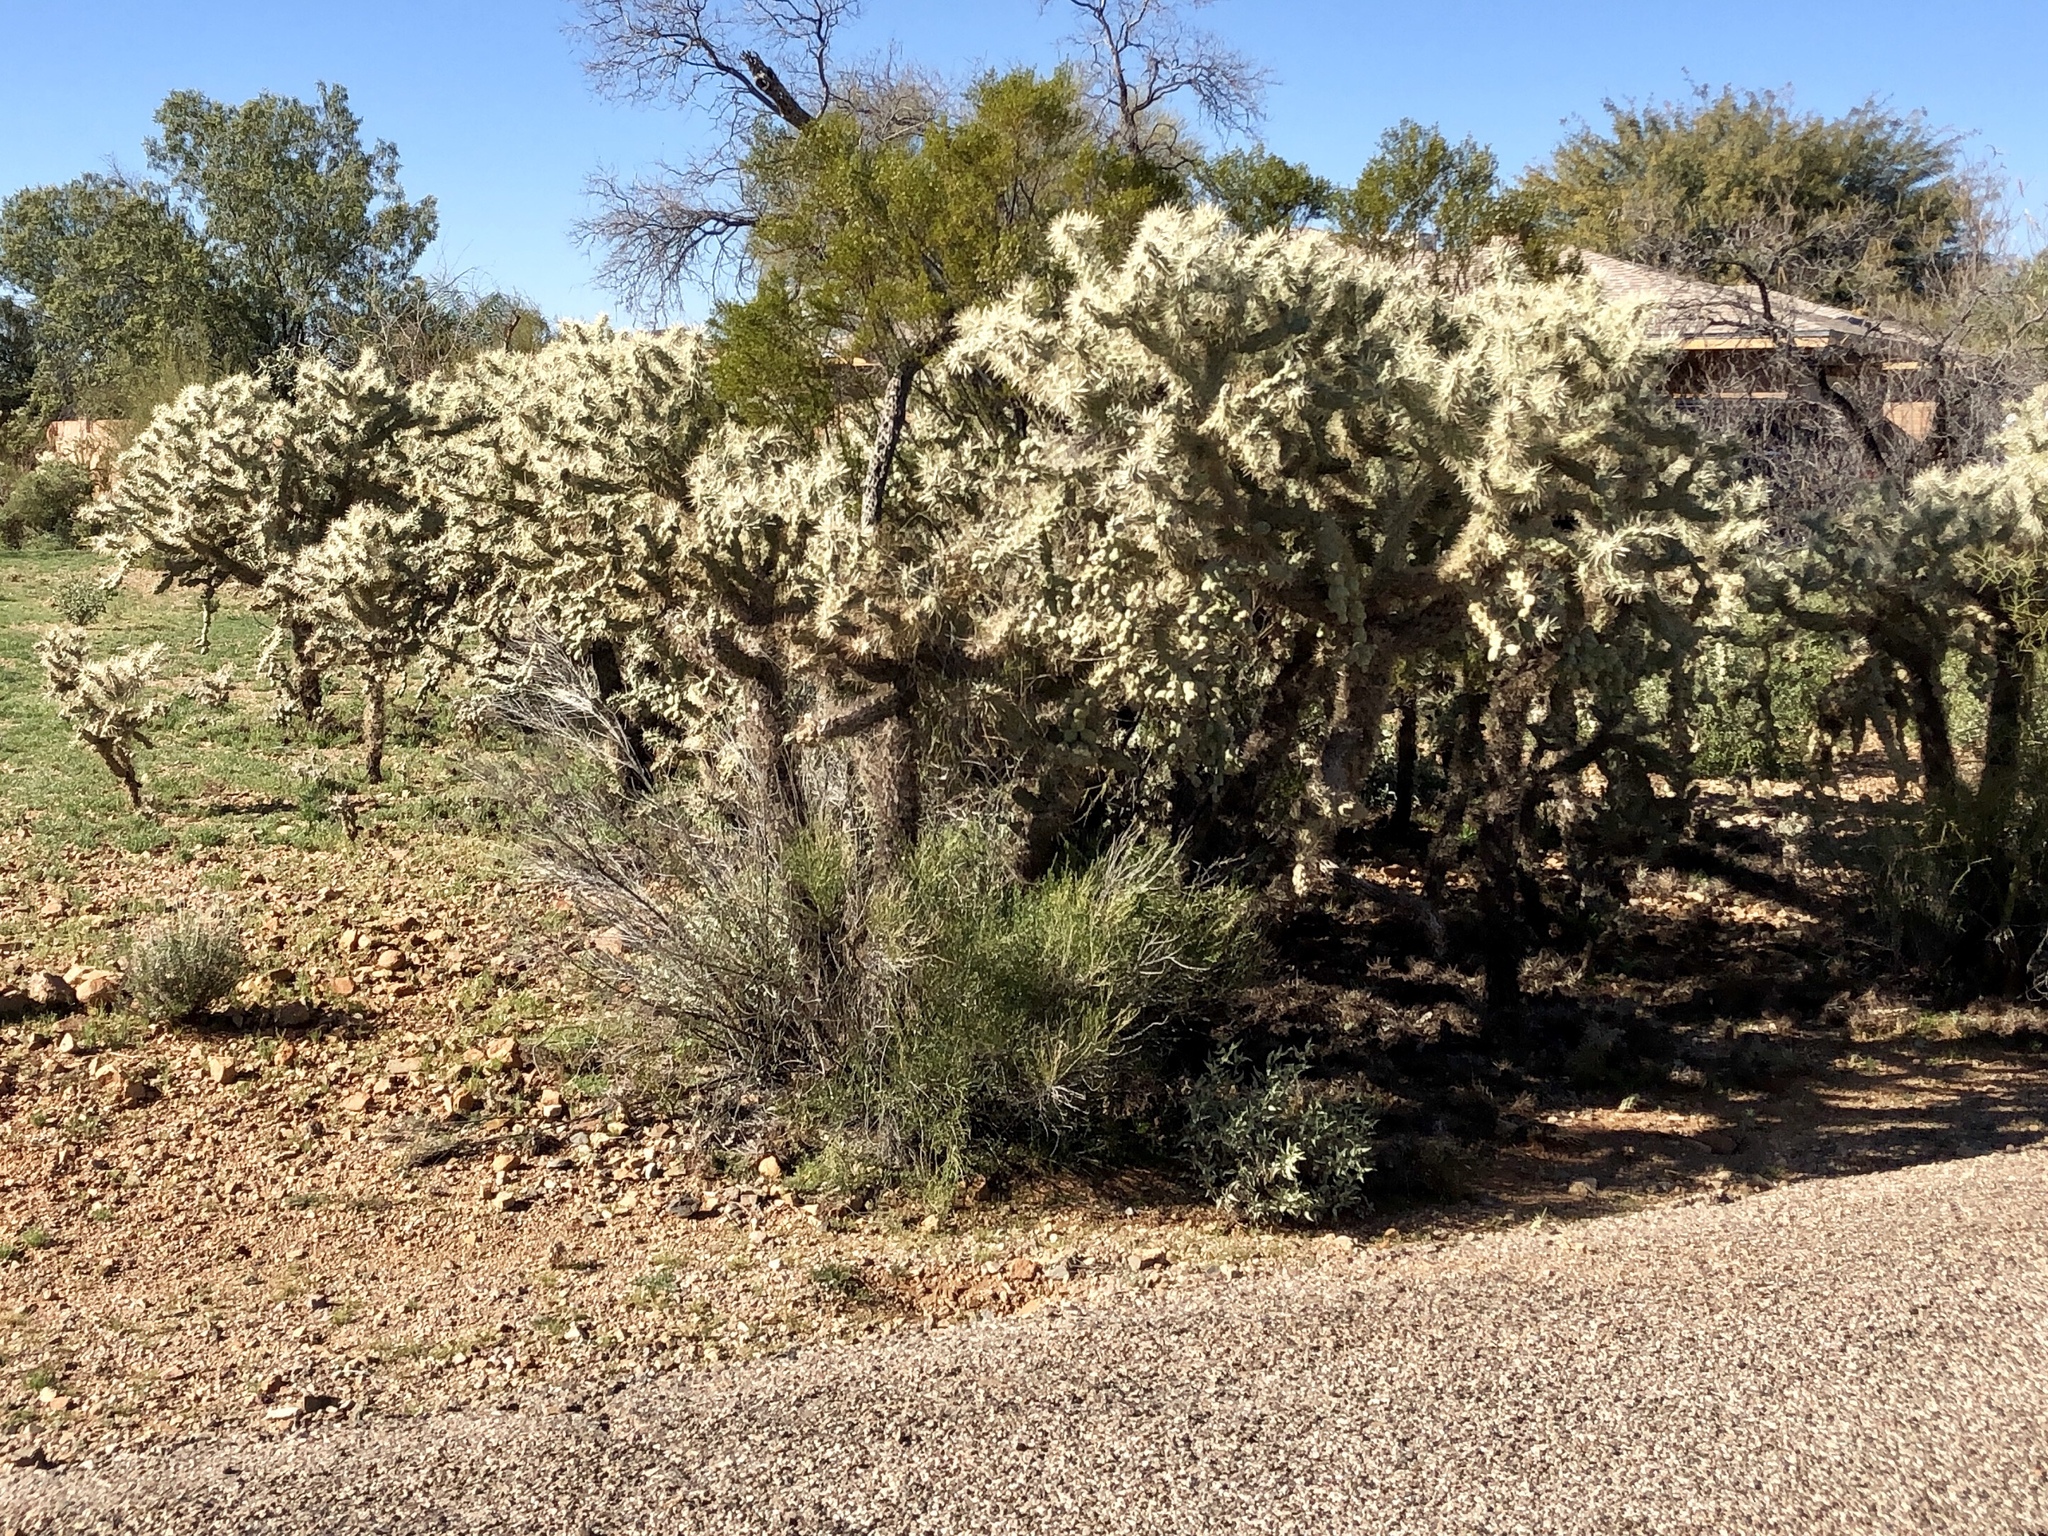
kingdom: Plantae
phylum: Tracheophyta
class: Magnoliopsida
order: Caryophyllales
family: Cactaceae
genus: Cylindropuntia
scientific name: Cylindropuntia fulgida
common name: Jumping cholla
